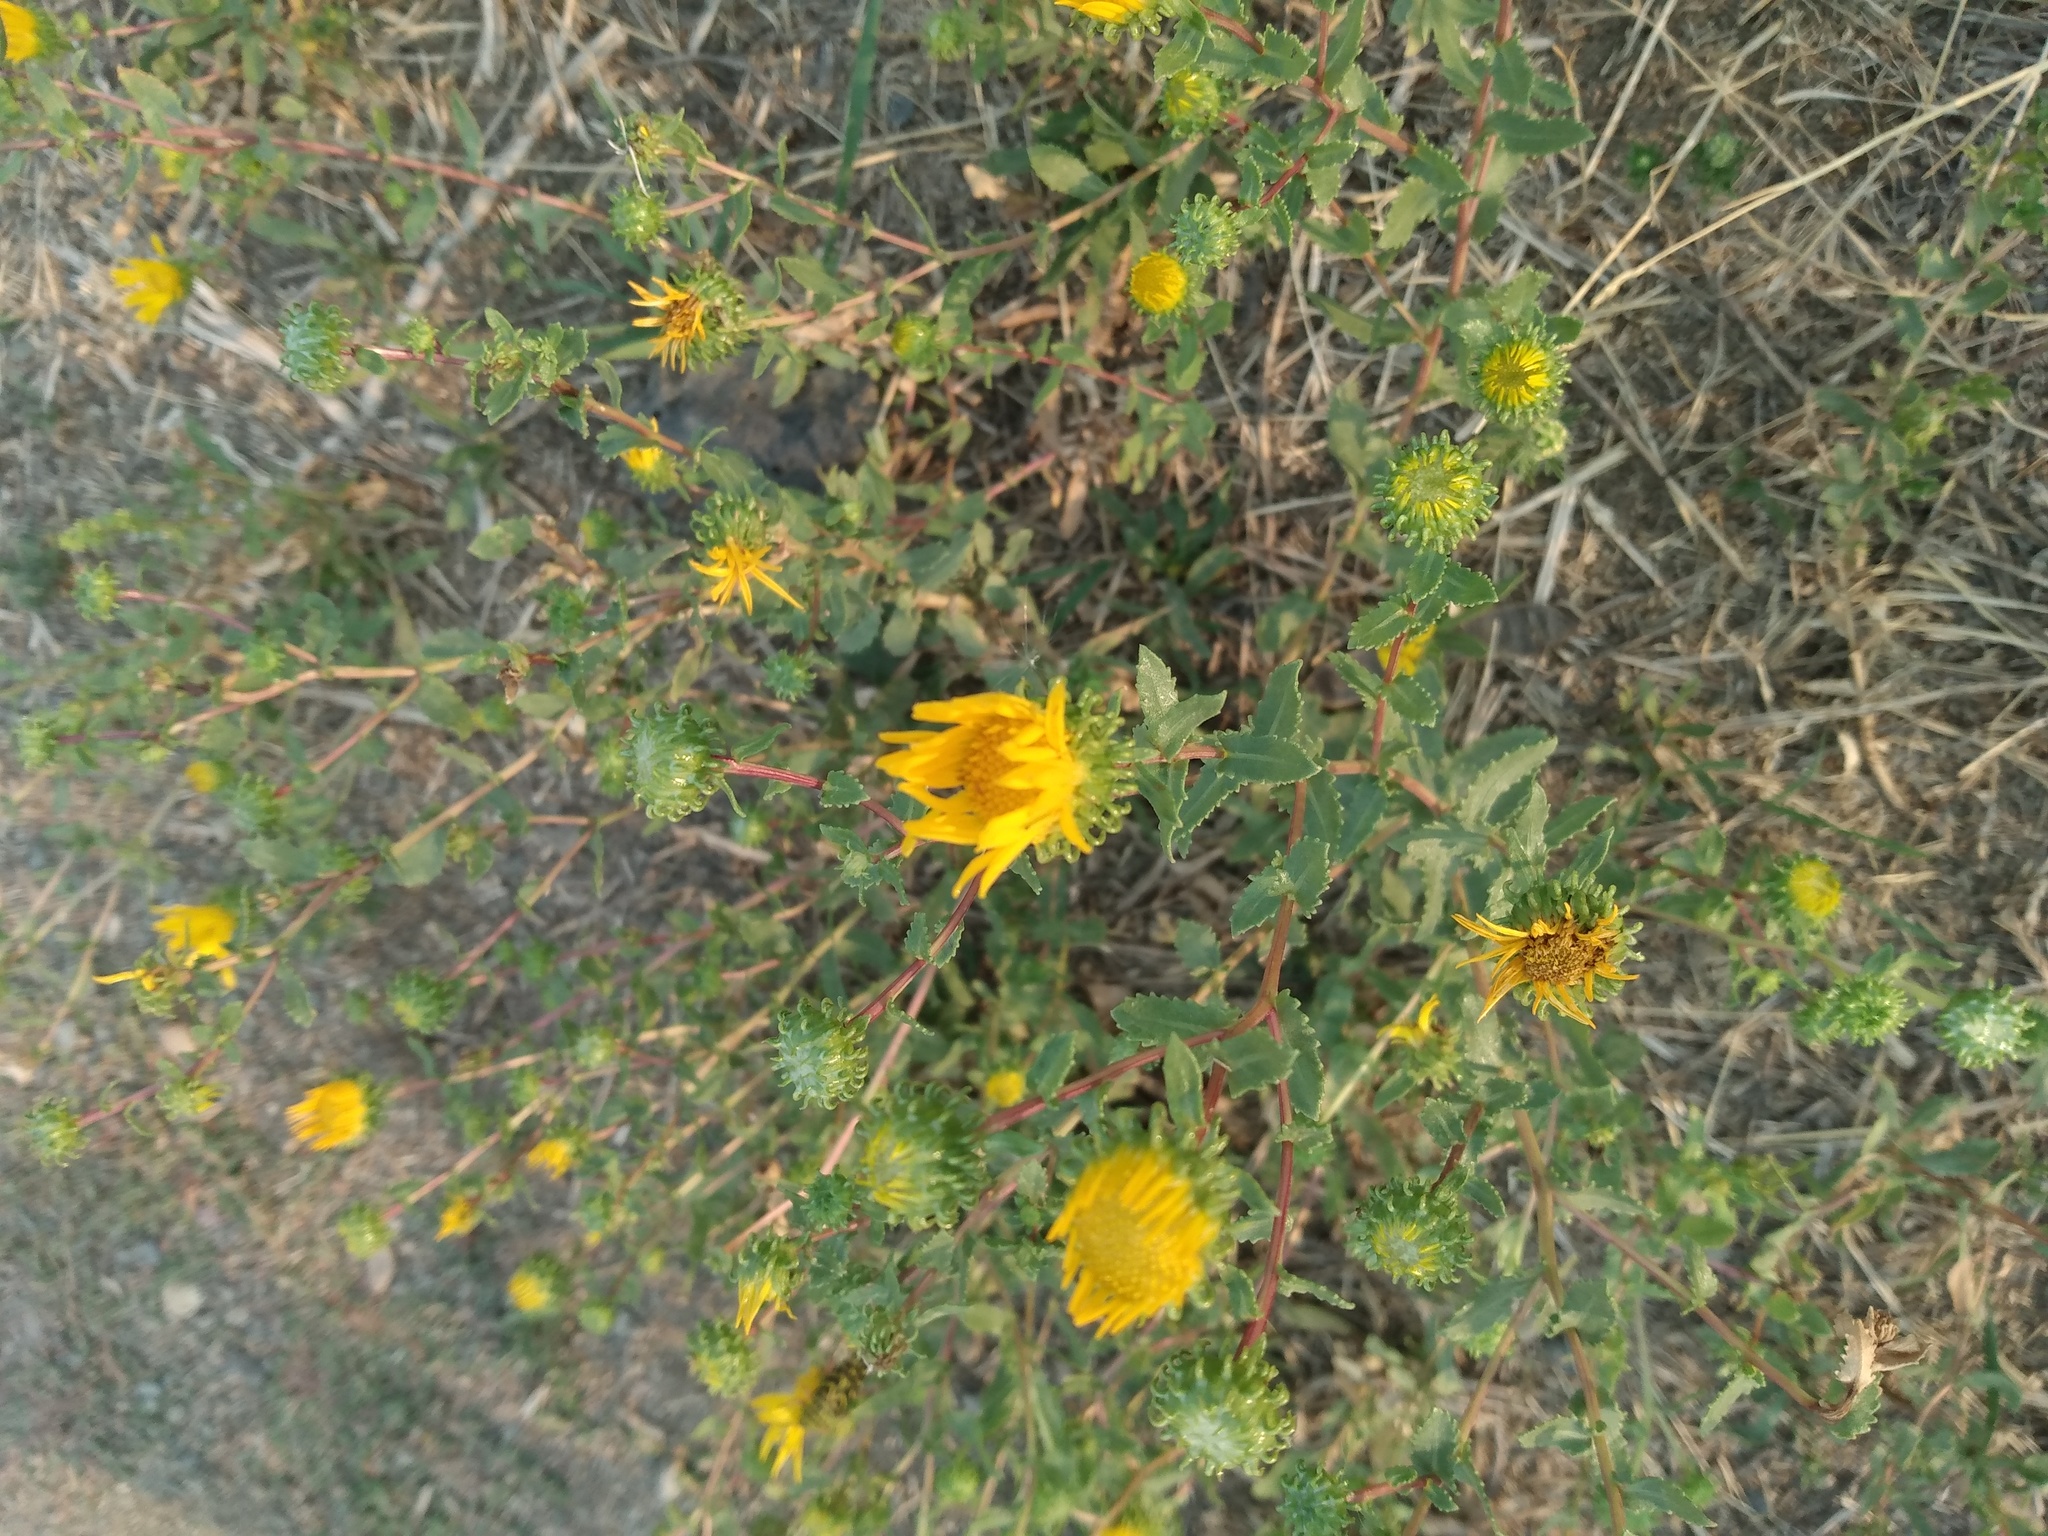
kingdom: Plantae
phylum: Tracheophyta
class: Magnoliopsida
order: Asterales
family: Asteraceae
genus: Grindelia
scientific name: Grindelia squarrosa
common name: Curly-cup gumweed
